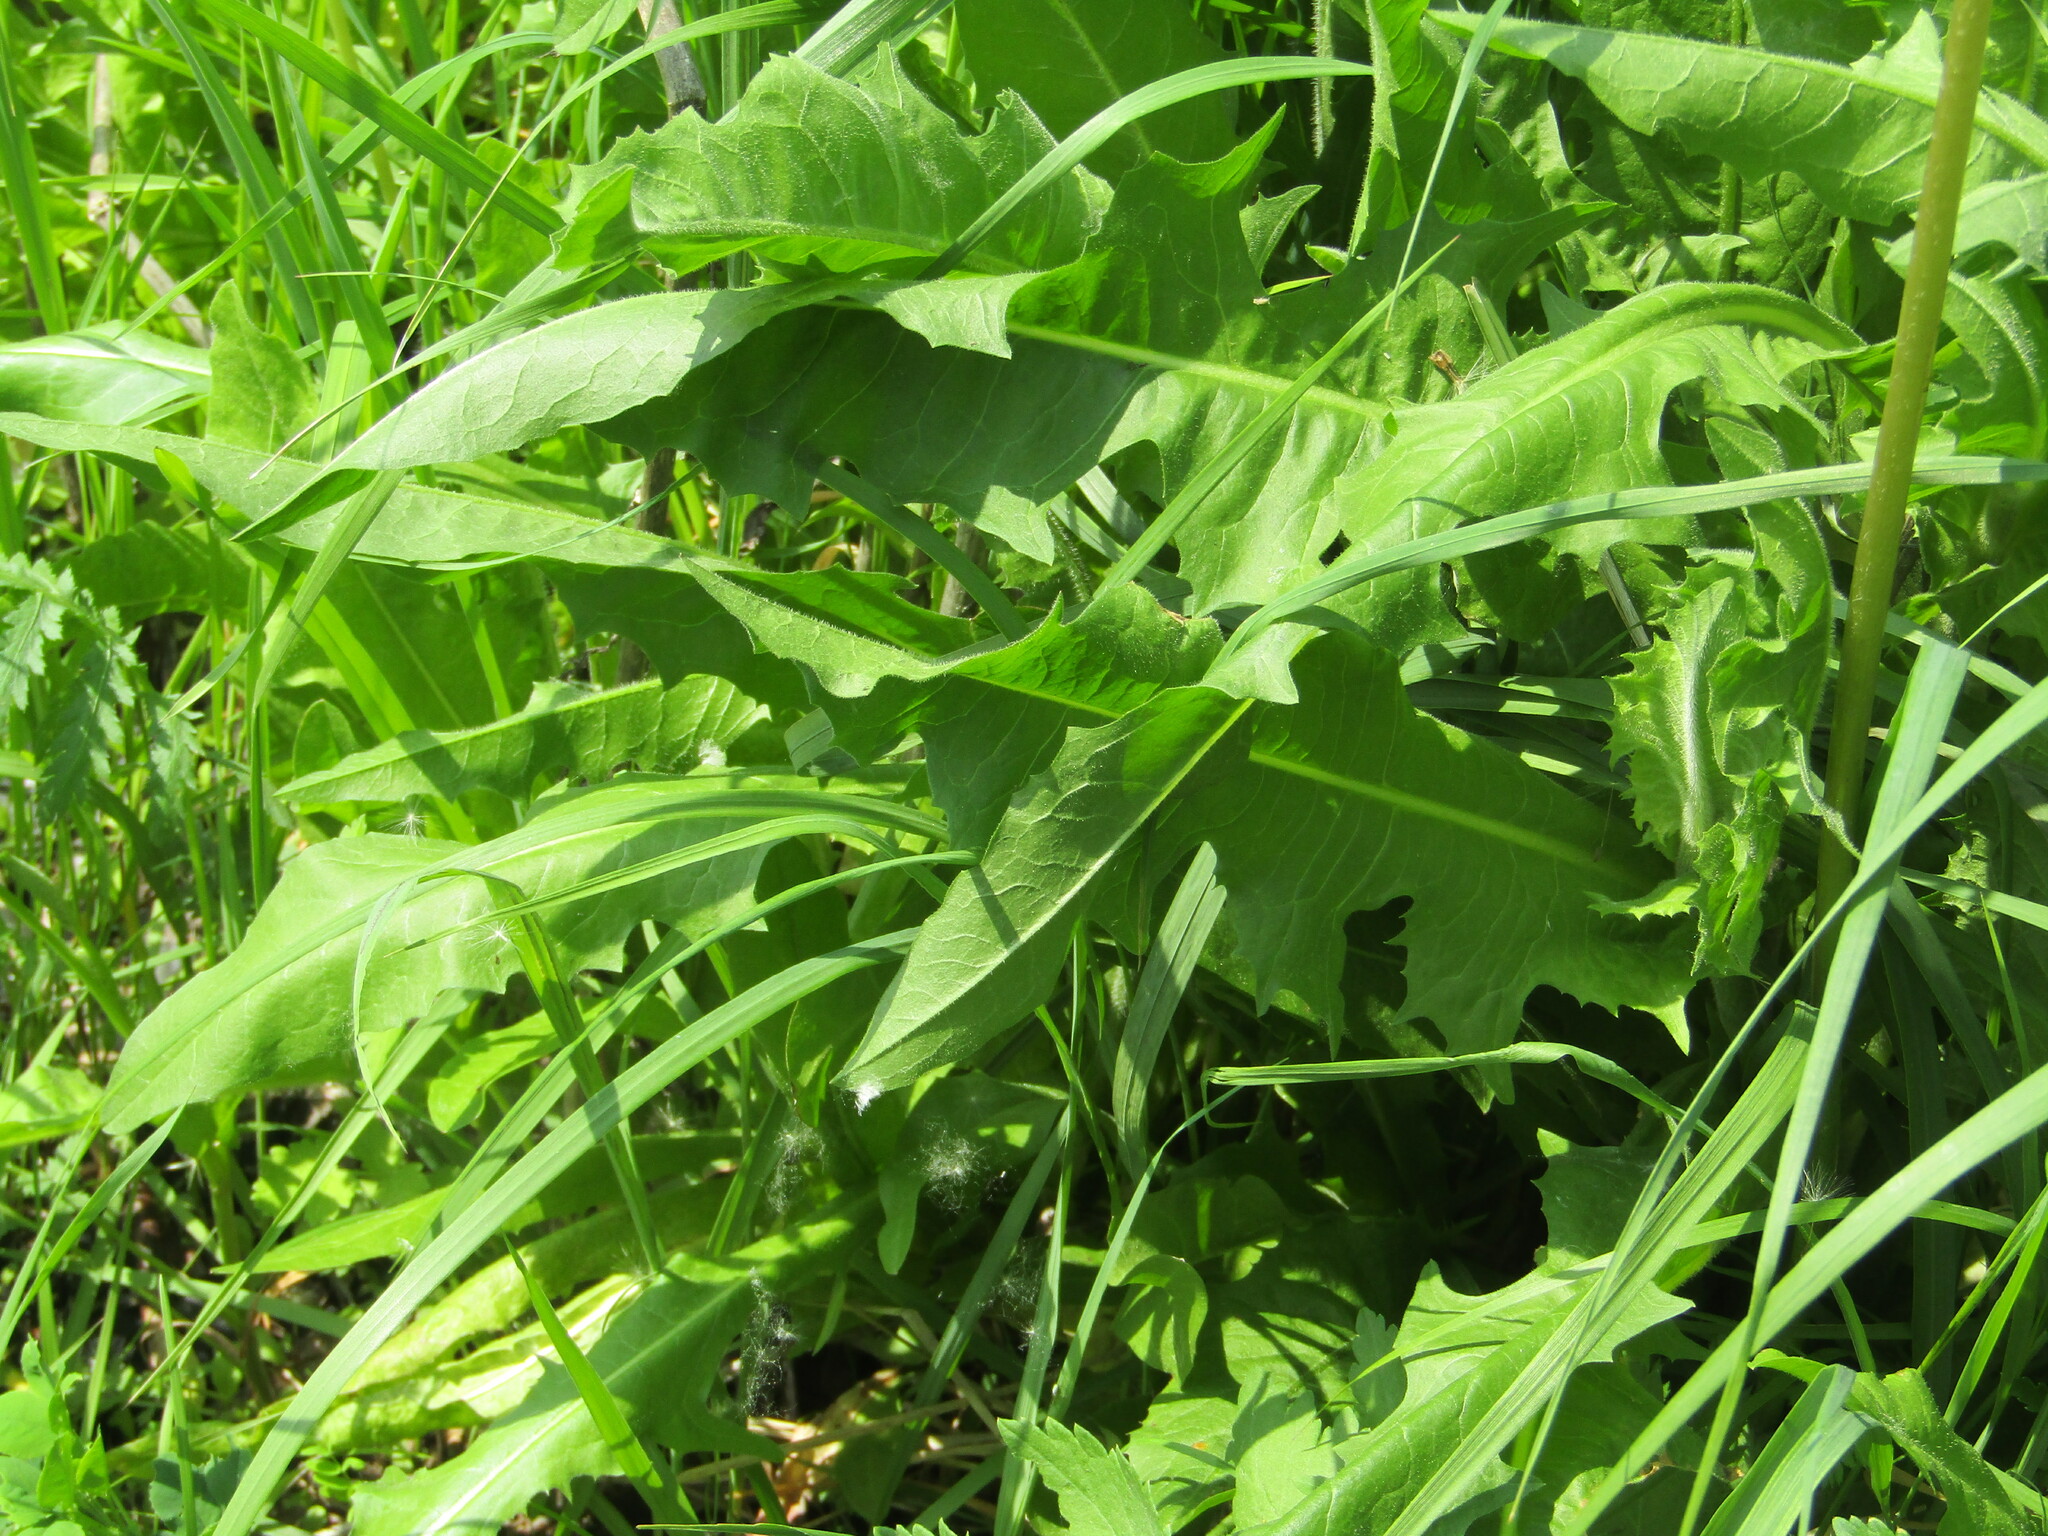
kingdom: Plantae
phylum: Tracheophyta
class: Magnoliopsida
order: Asterales
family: Asteraceae
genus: Cichorium
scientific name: Cichorium intybus
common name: Chicory
